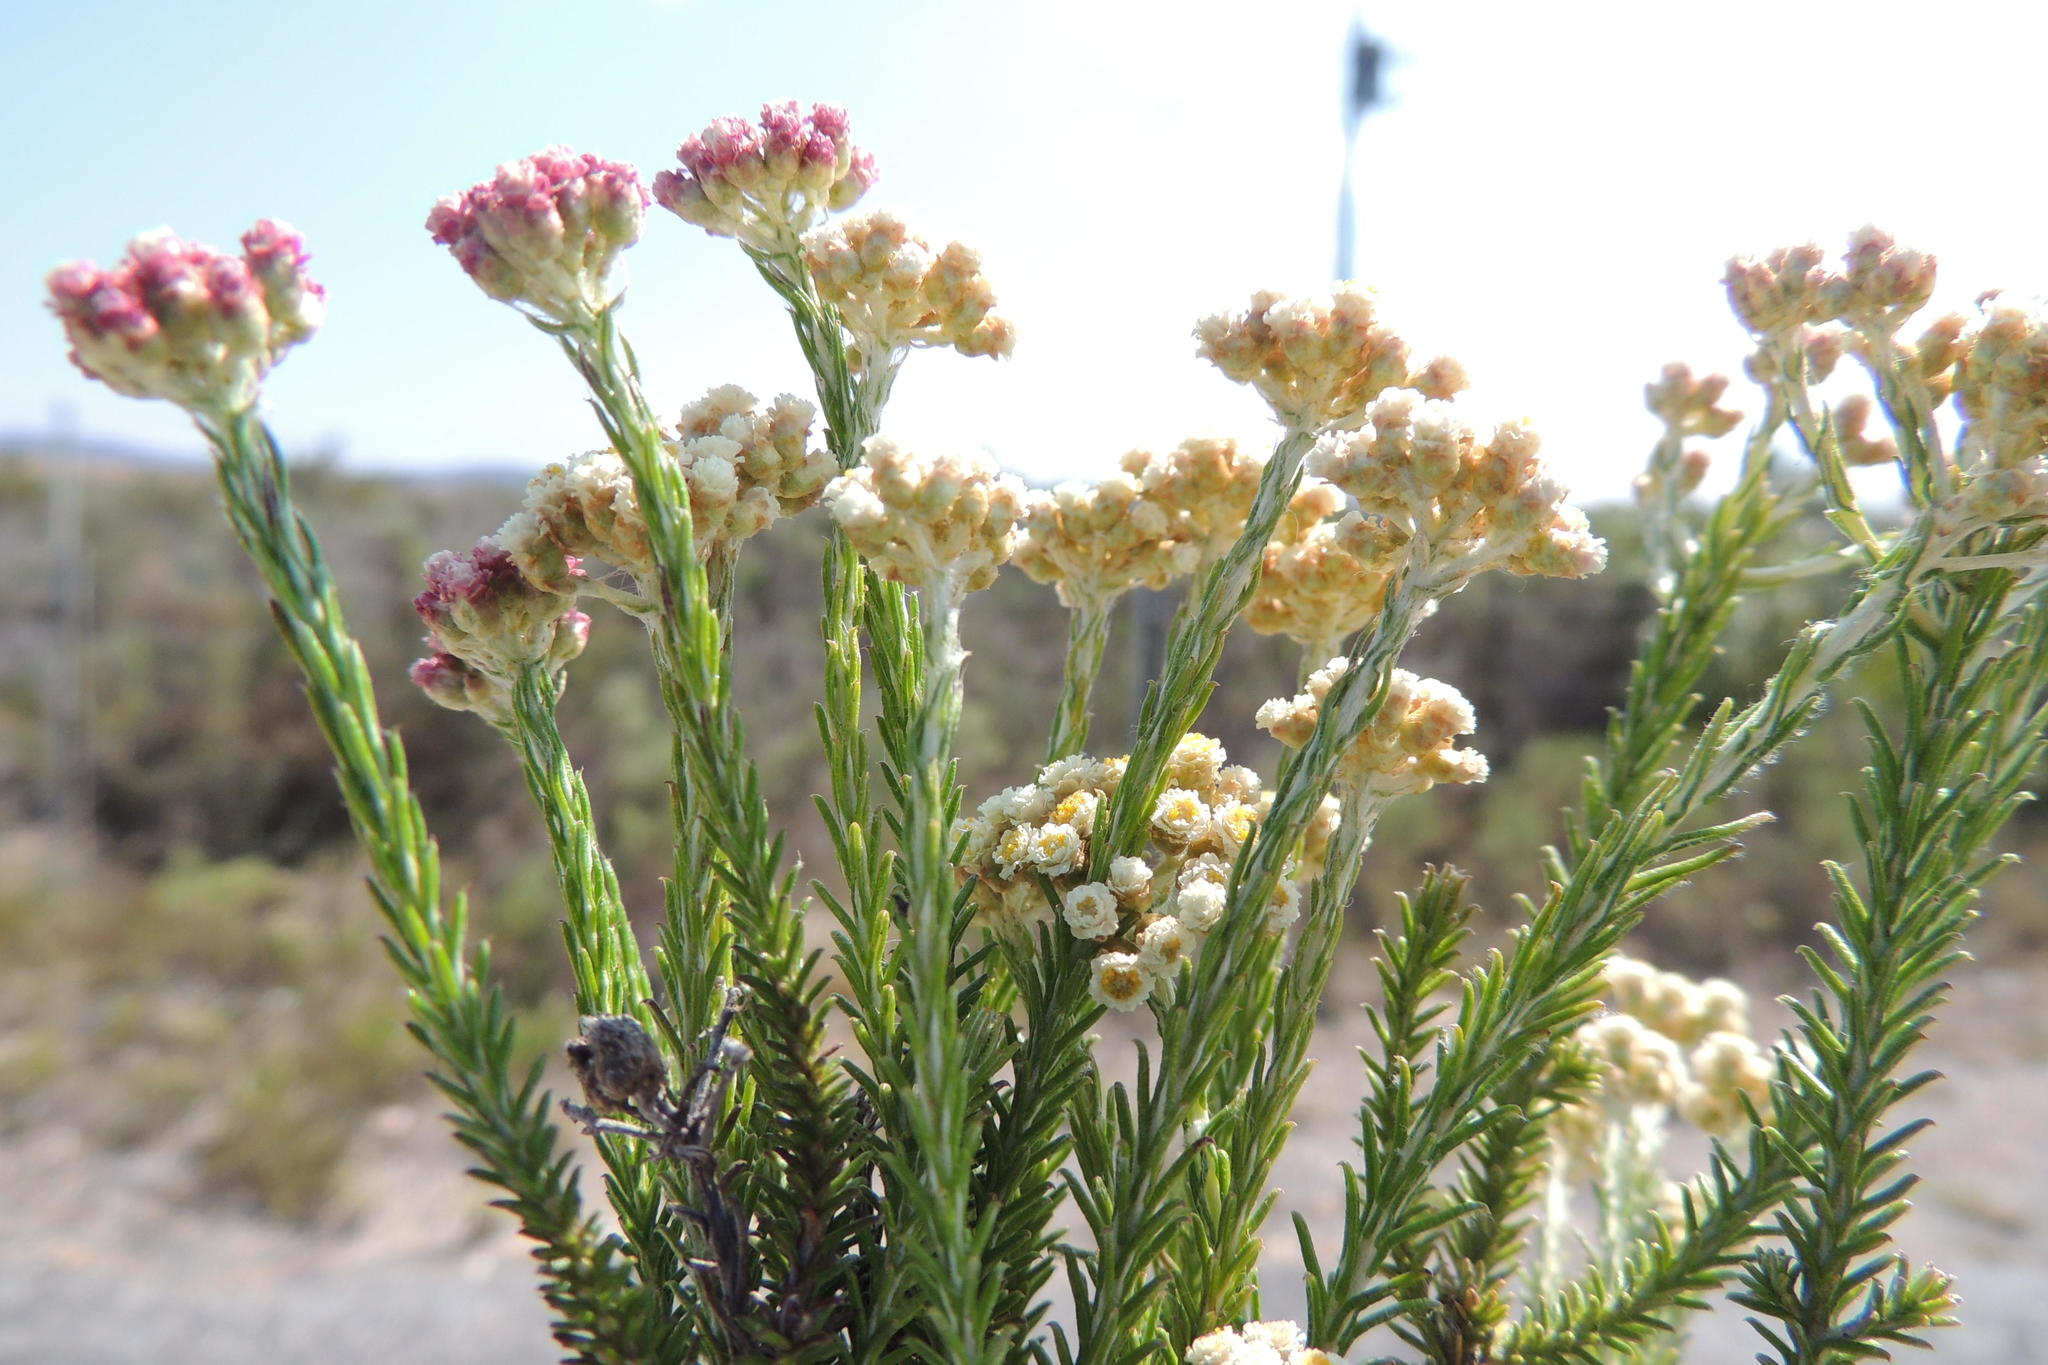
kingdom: Plantae
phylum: Tracheophyta
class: Magnoliopsida
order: Asterales
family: Asteraceae
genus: Helichrysum
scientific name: Helichrysum teretifolium
